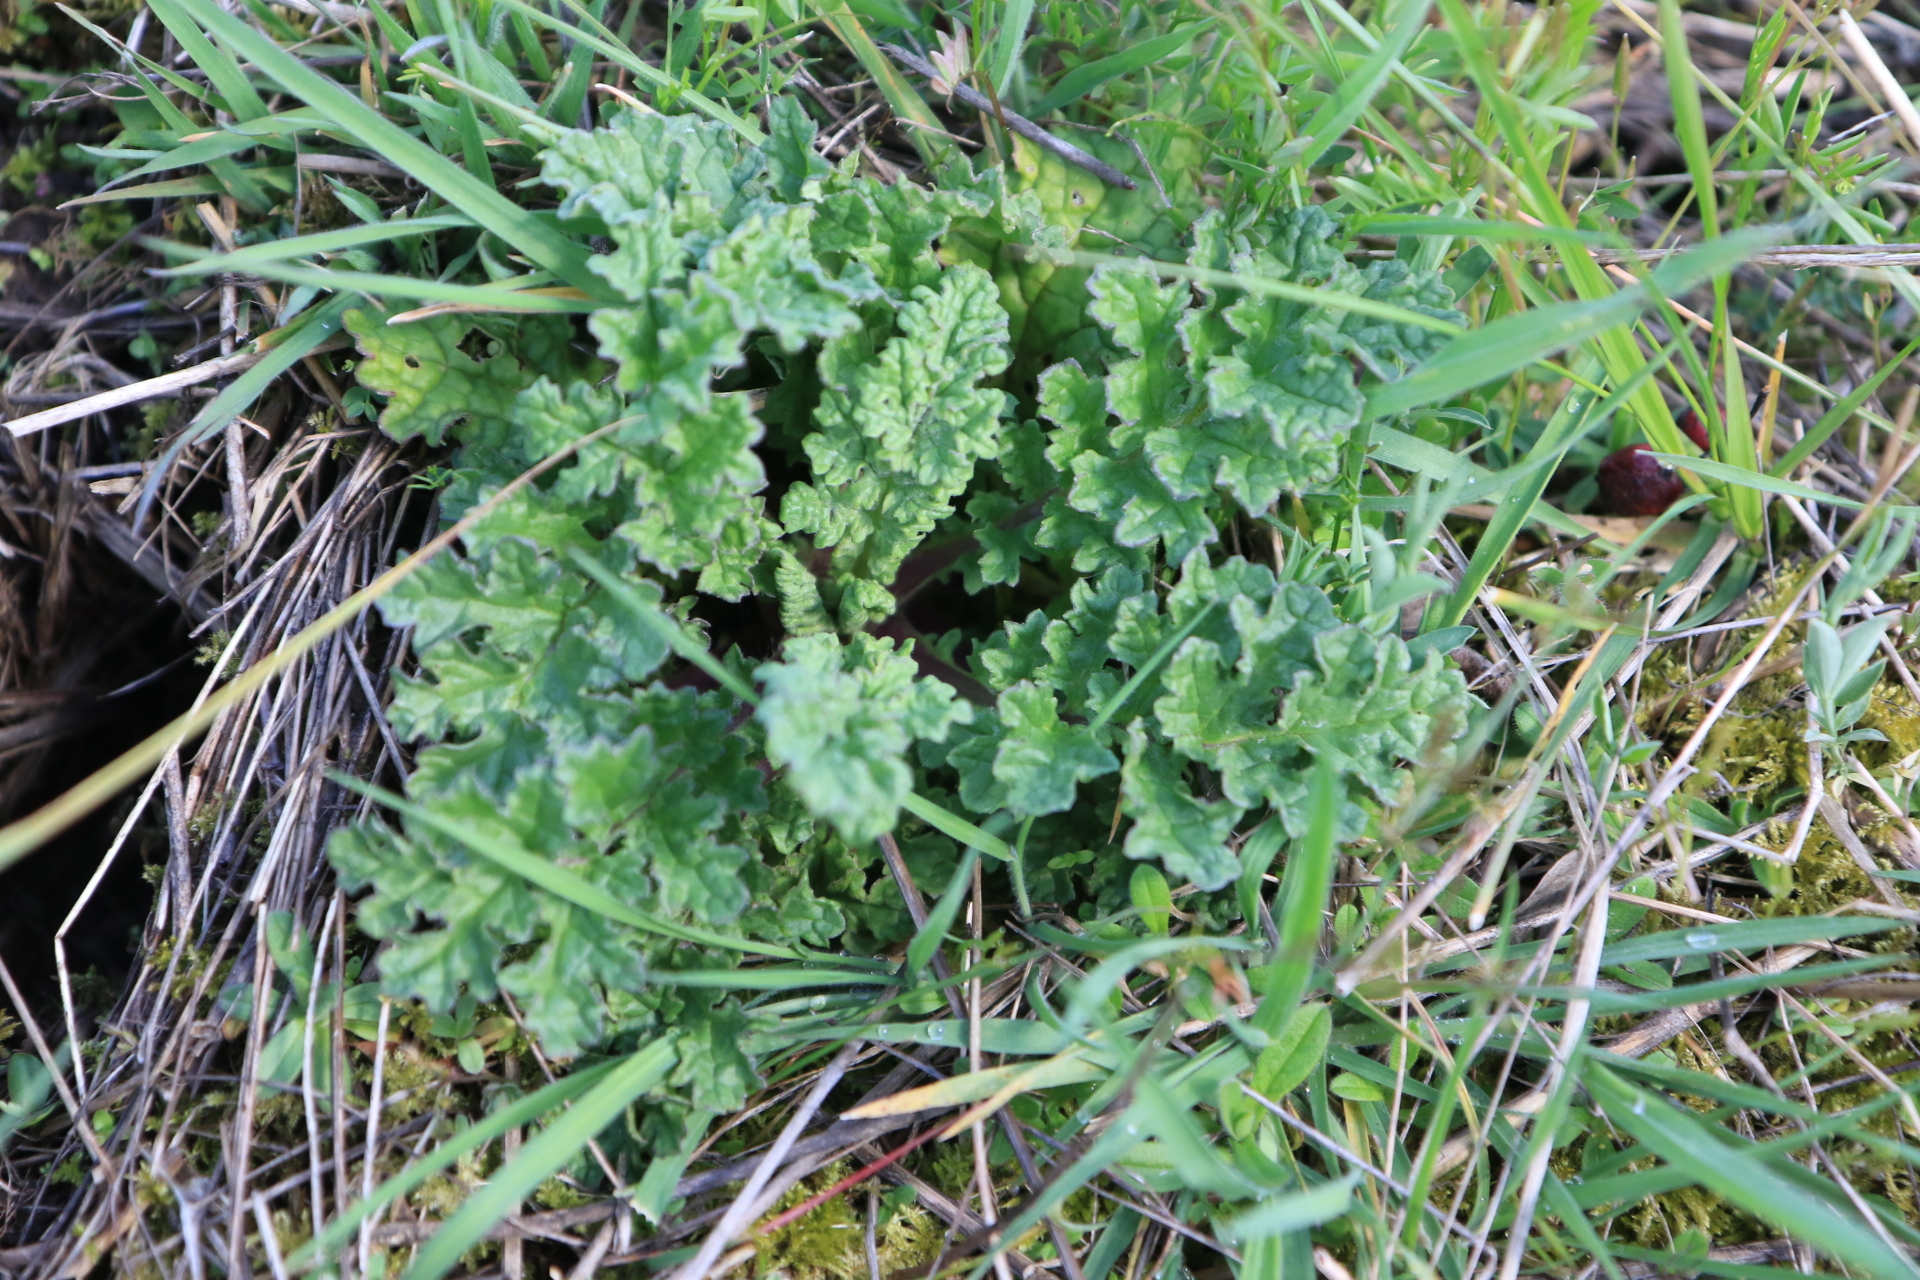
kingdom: Plantae
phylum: Tracheophyta
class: Magnoliopsida
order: Asterales
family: Asteraceae
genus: Jacobaea
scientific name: Jacobaea vulgaris
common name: Stinking willie
